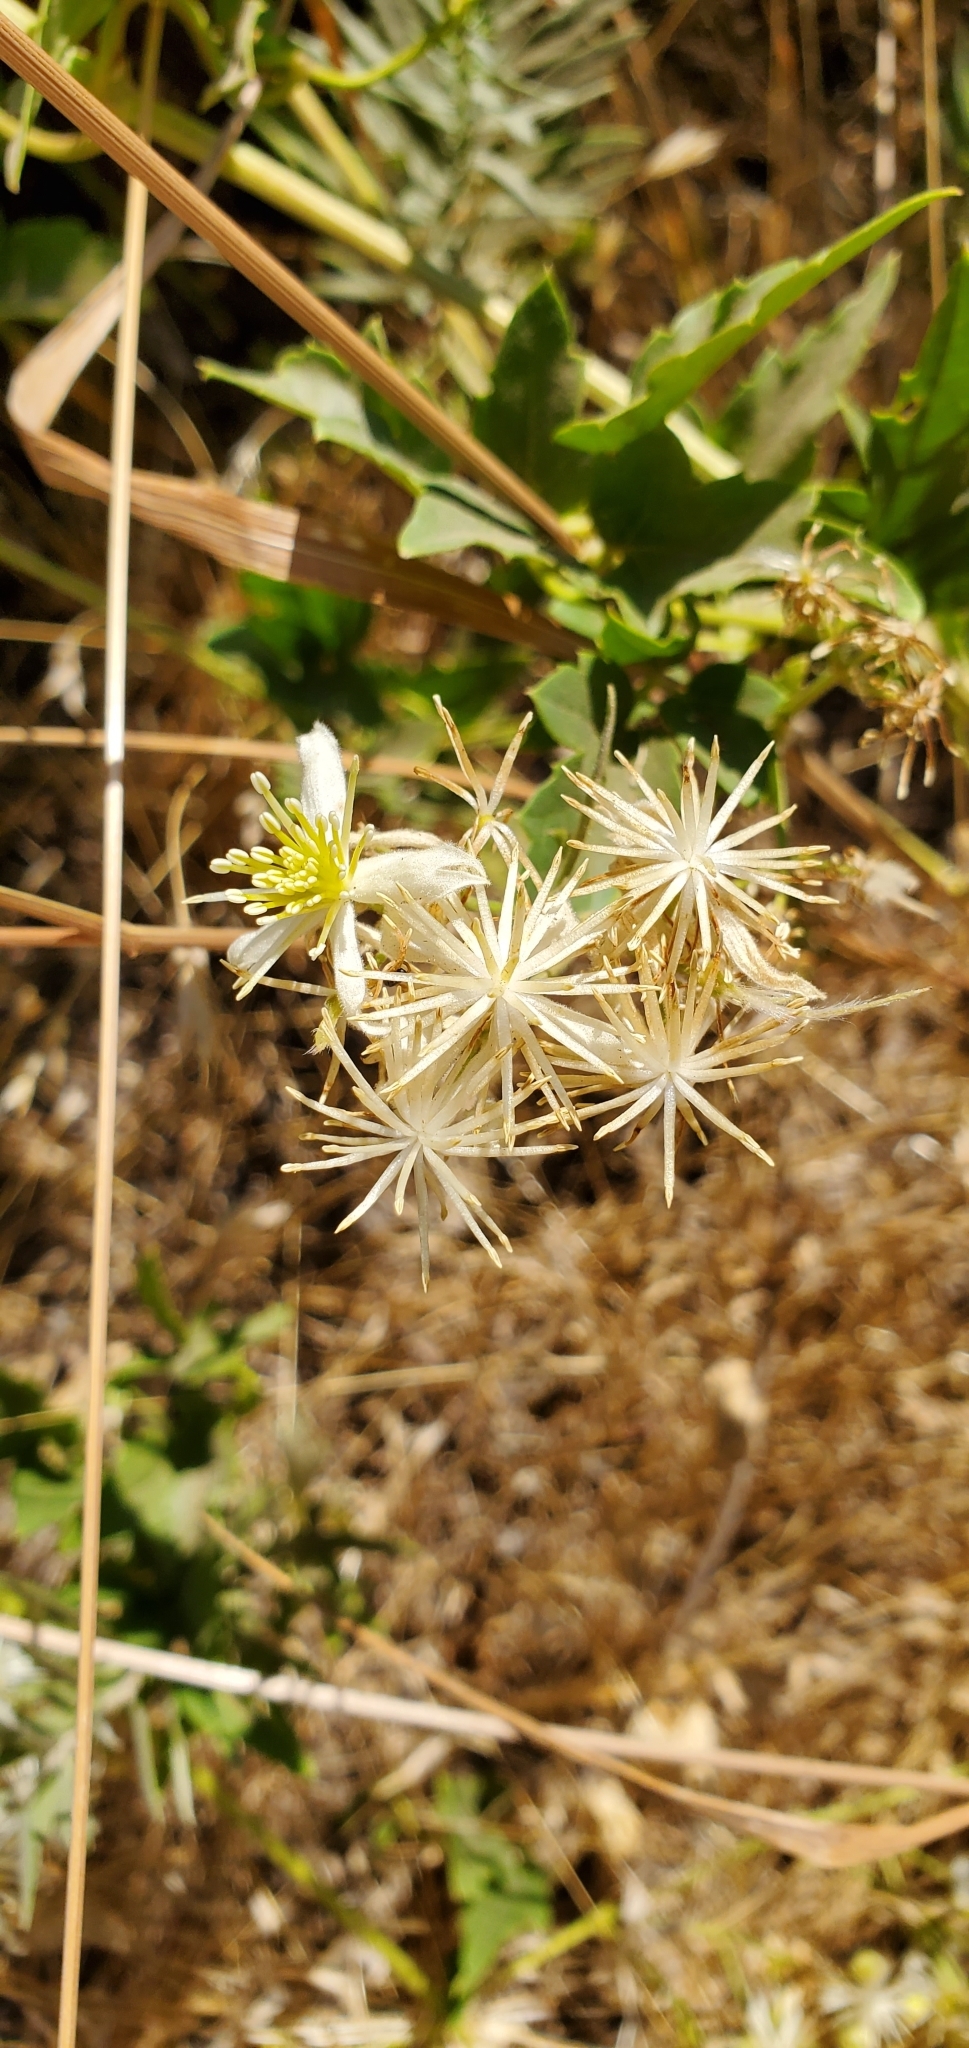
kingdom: Plantae
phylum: Tracheophyta
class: Magnoliopsida
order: Ranunculales
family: Ranunculaceae
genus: Clematis
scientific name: Clematis ligusticifolia
